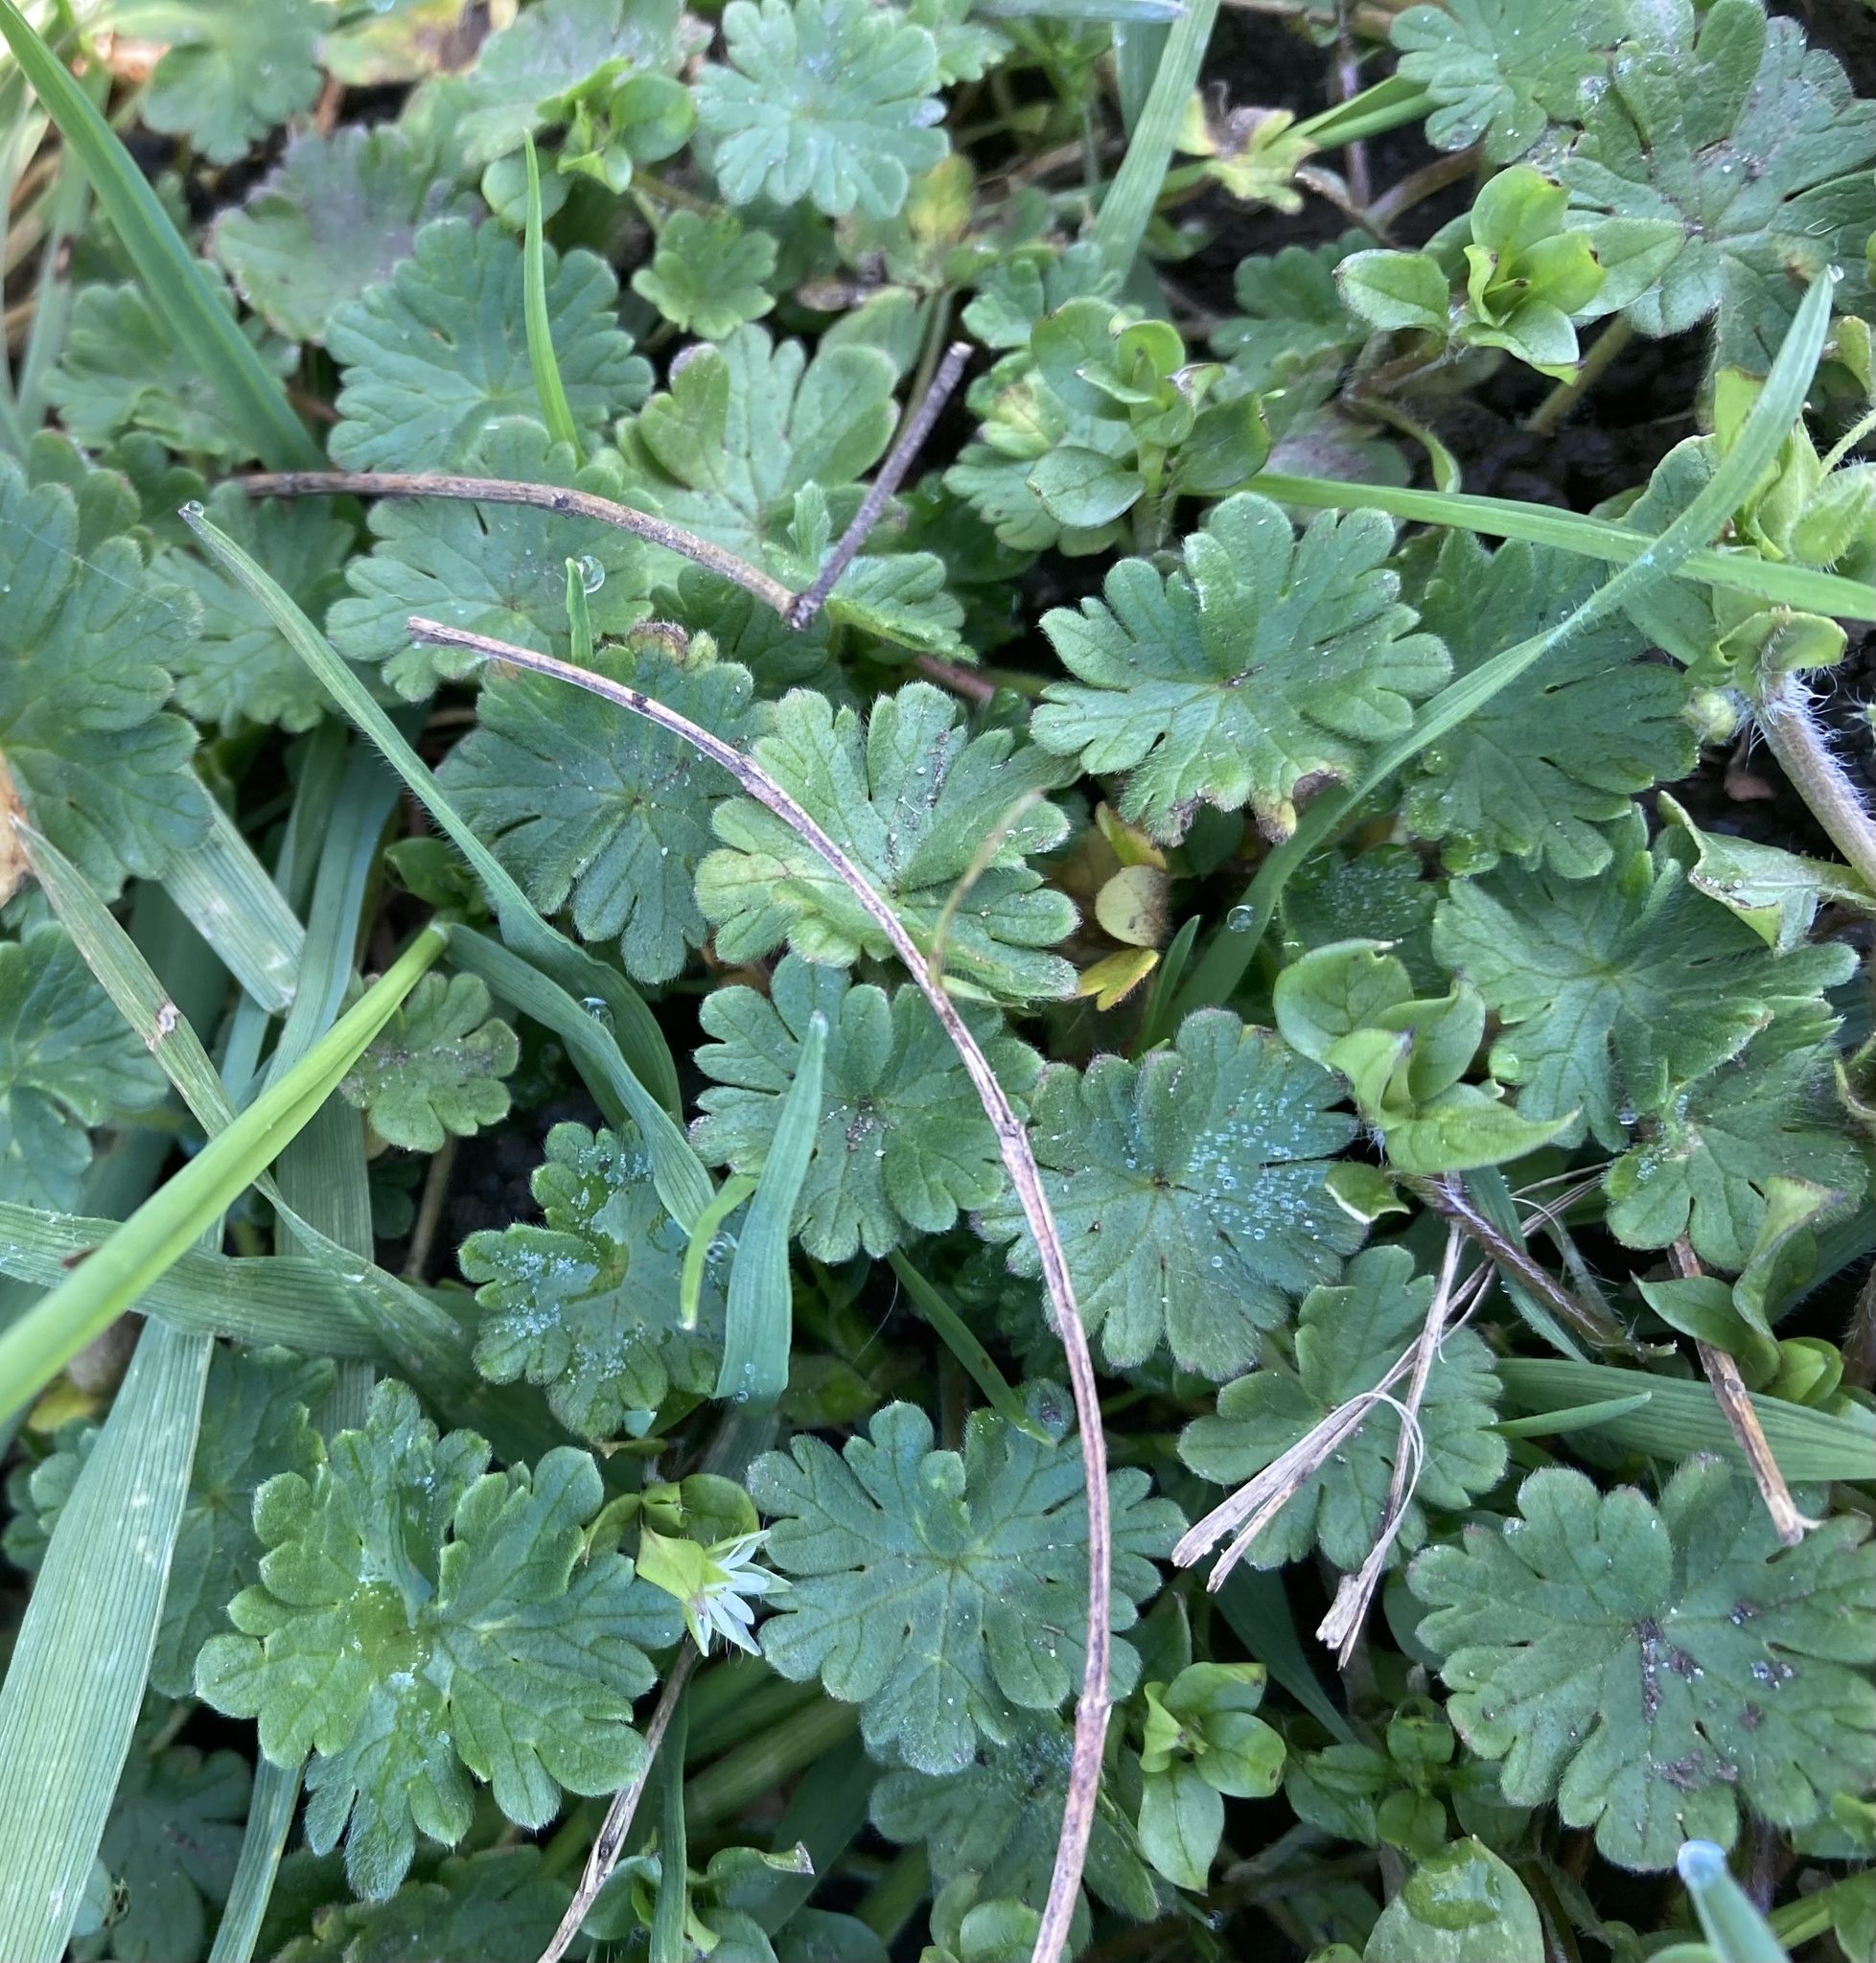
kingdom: Plantae
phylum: Tracheophyta
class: Magnoliopsida
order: Geraniales
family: Geraniaceae
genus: Geranium
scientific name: Geranium molle
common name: Dove's-foot crane's-bill
